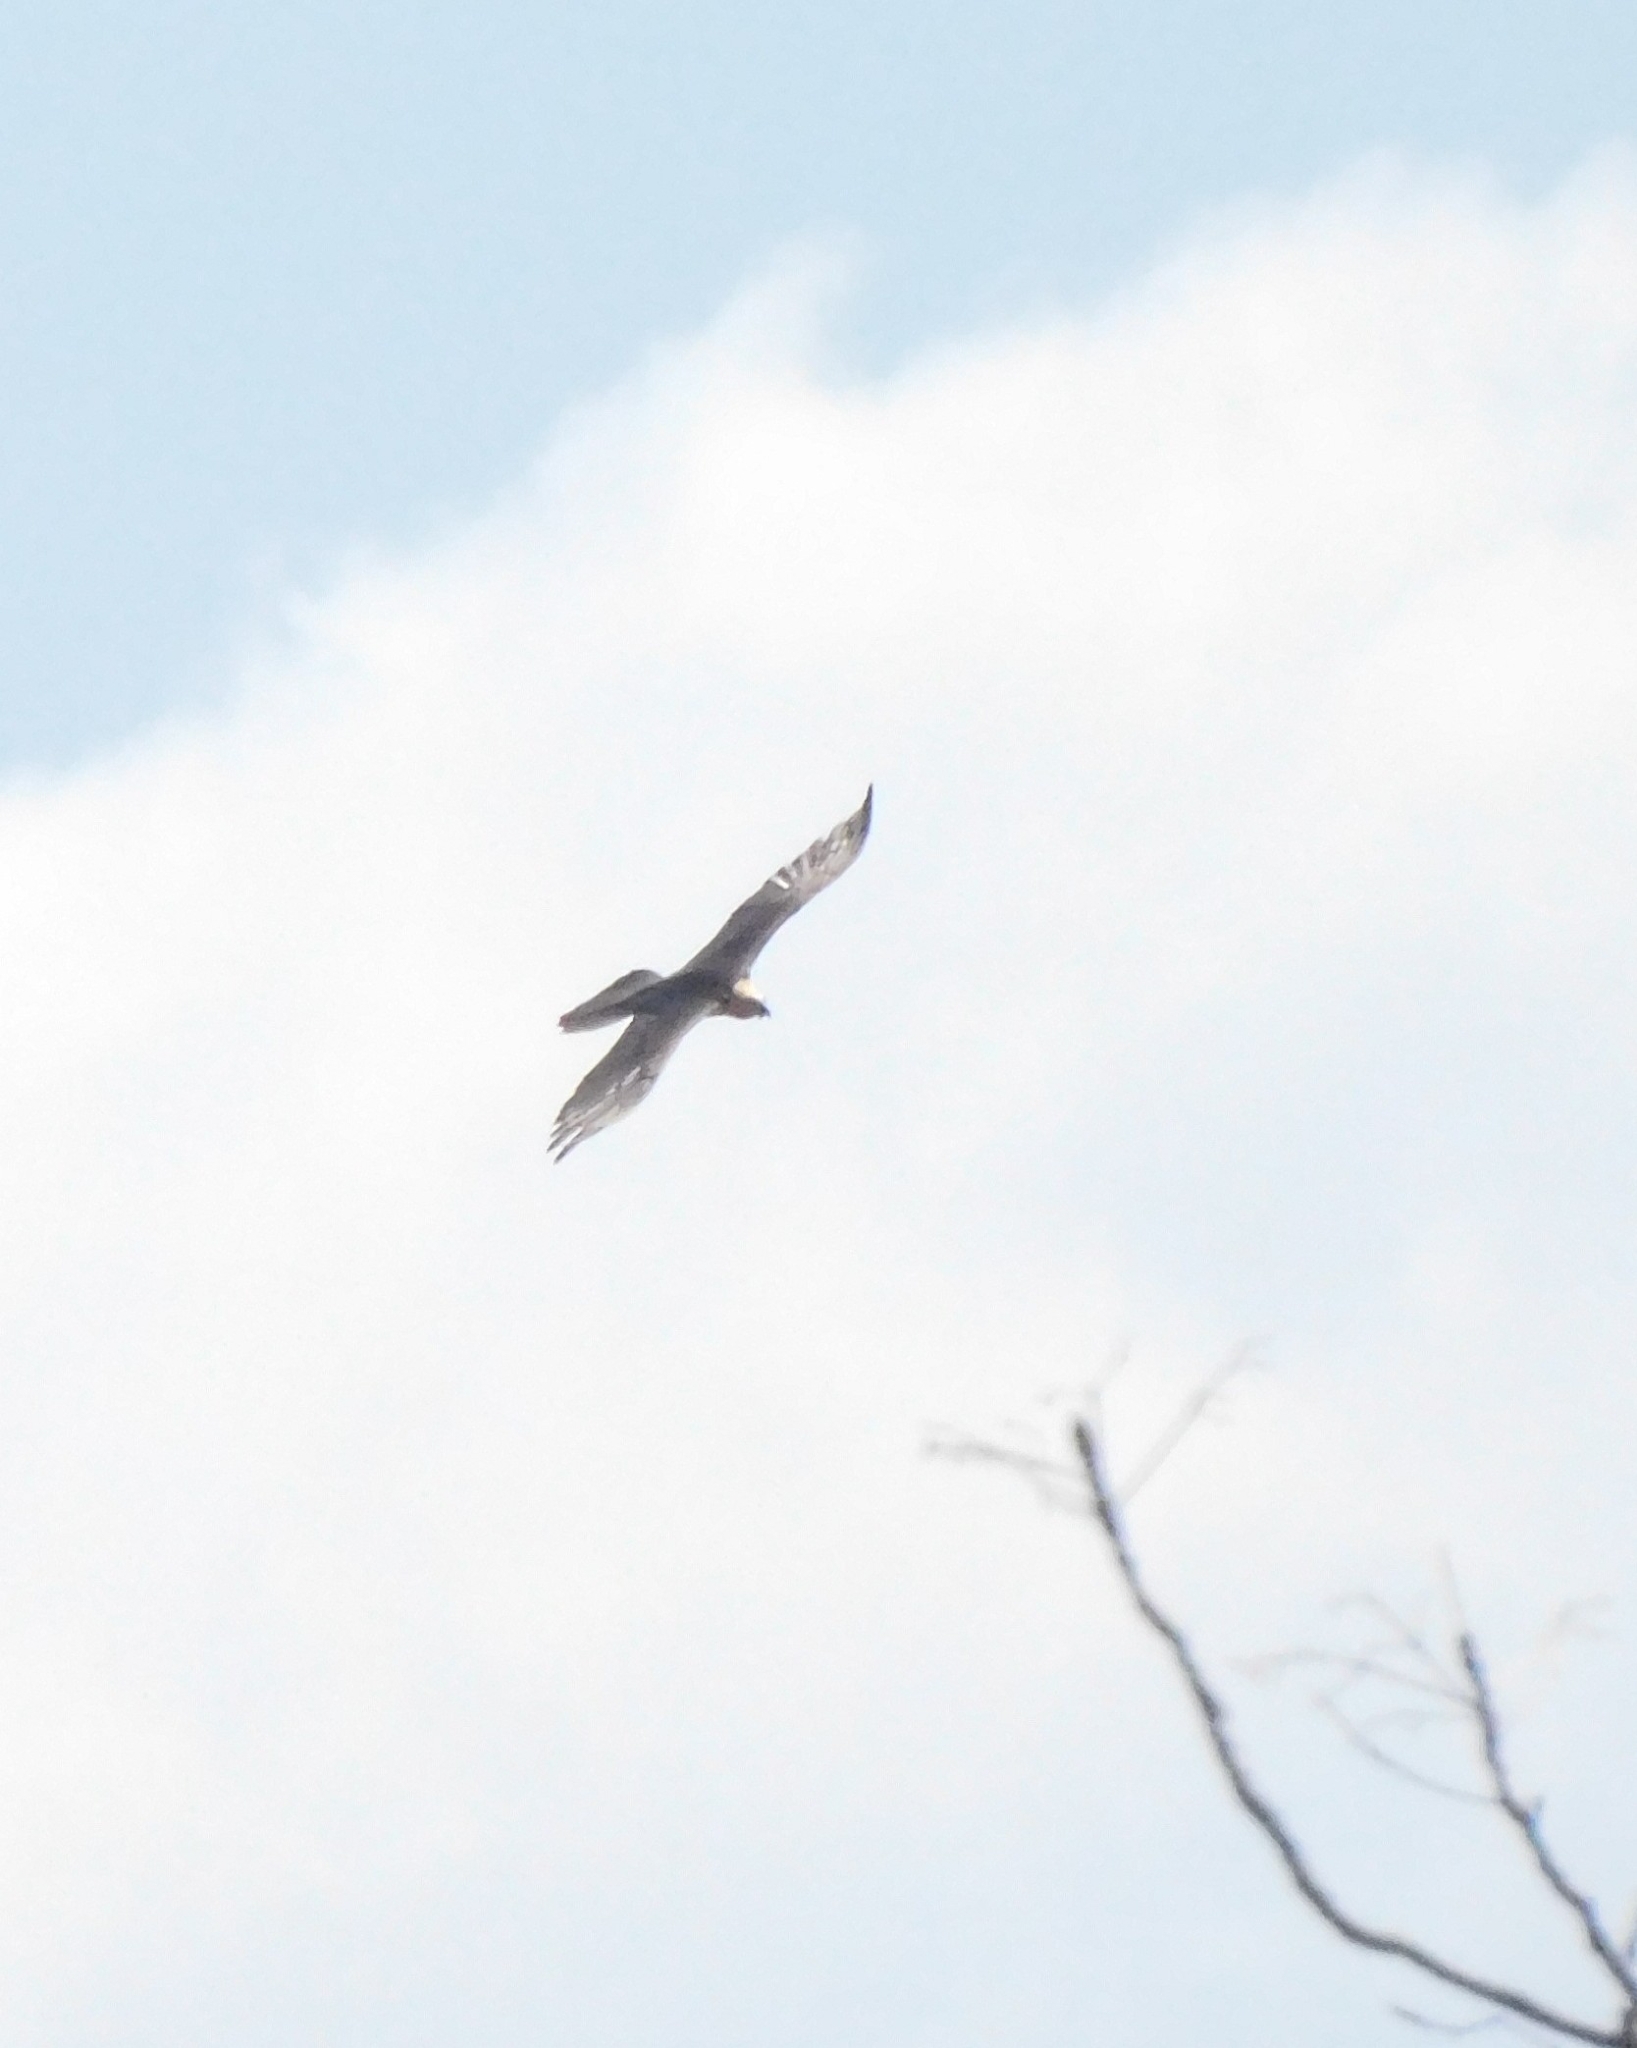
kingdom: Animalia
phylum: Chordata
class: Aves
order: Accipitriformes
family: Accipitridae
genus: Gypaetus
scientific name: Gypaetus barbatus
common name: Bearded vulture
